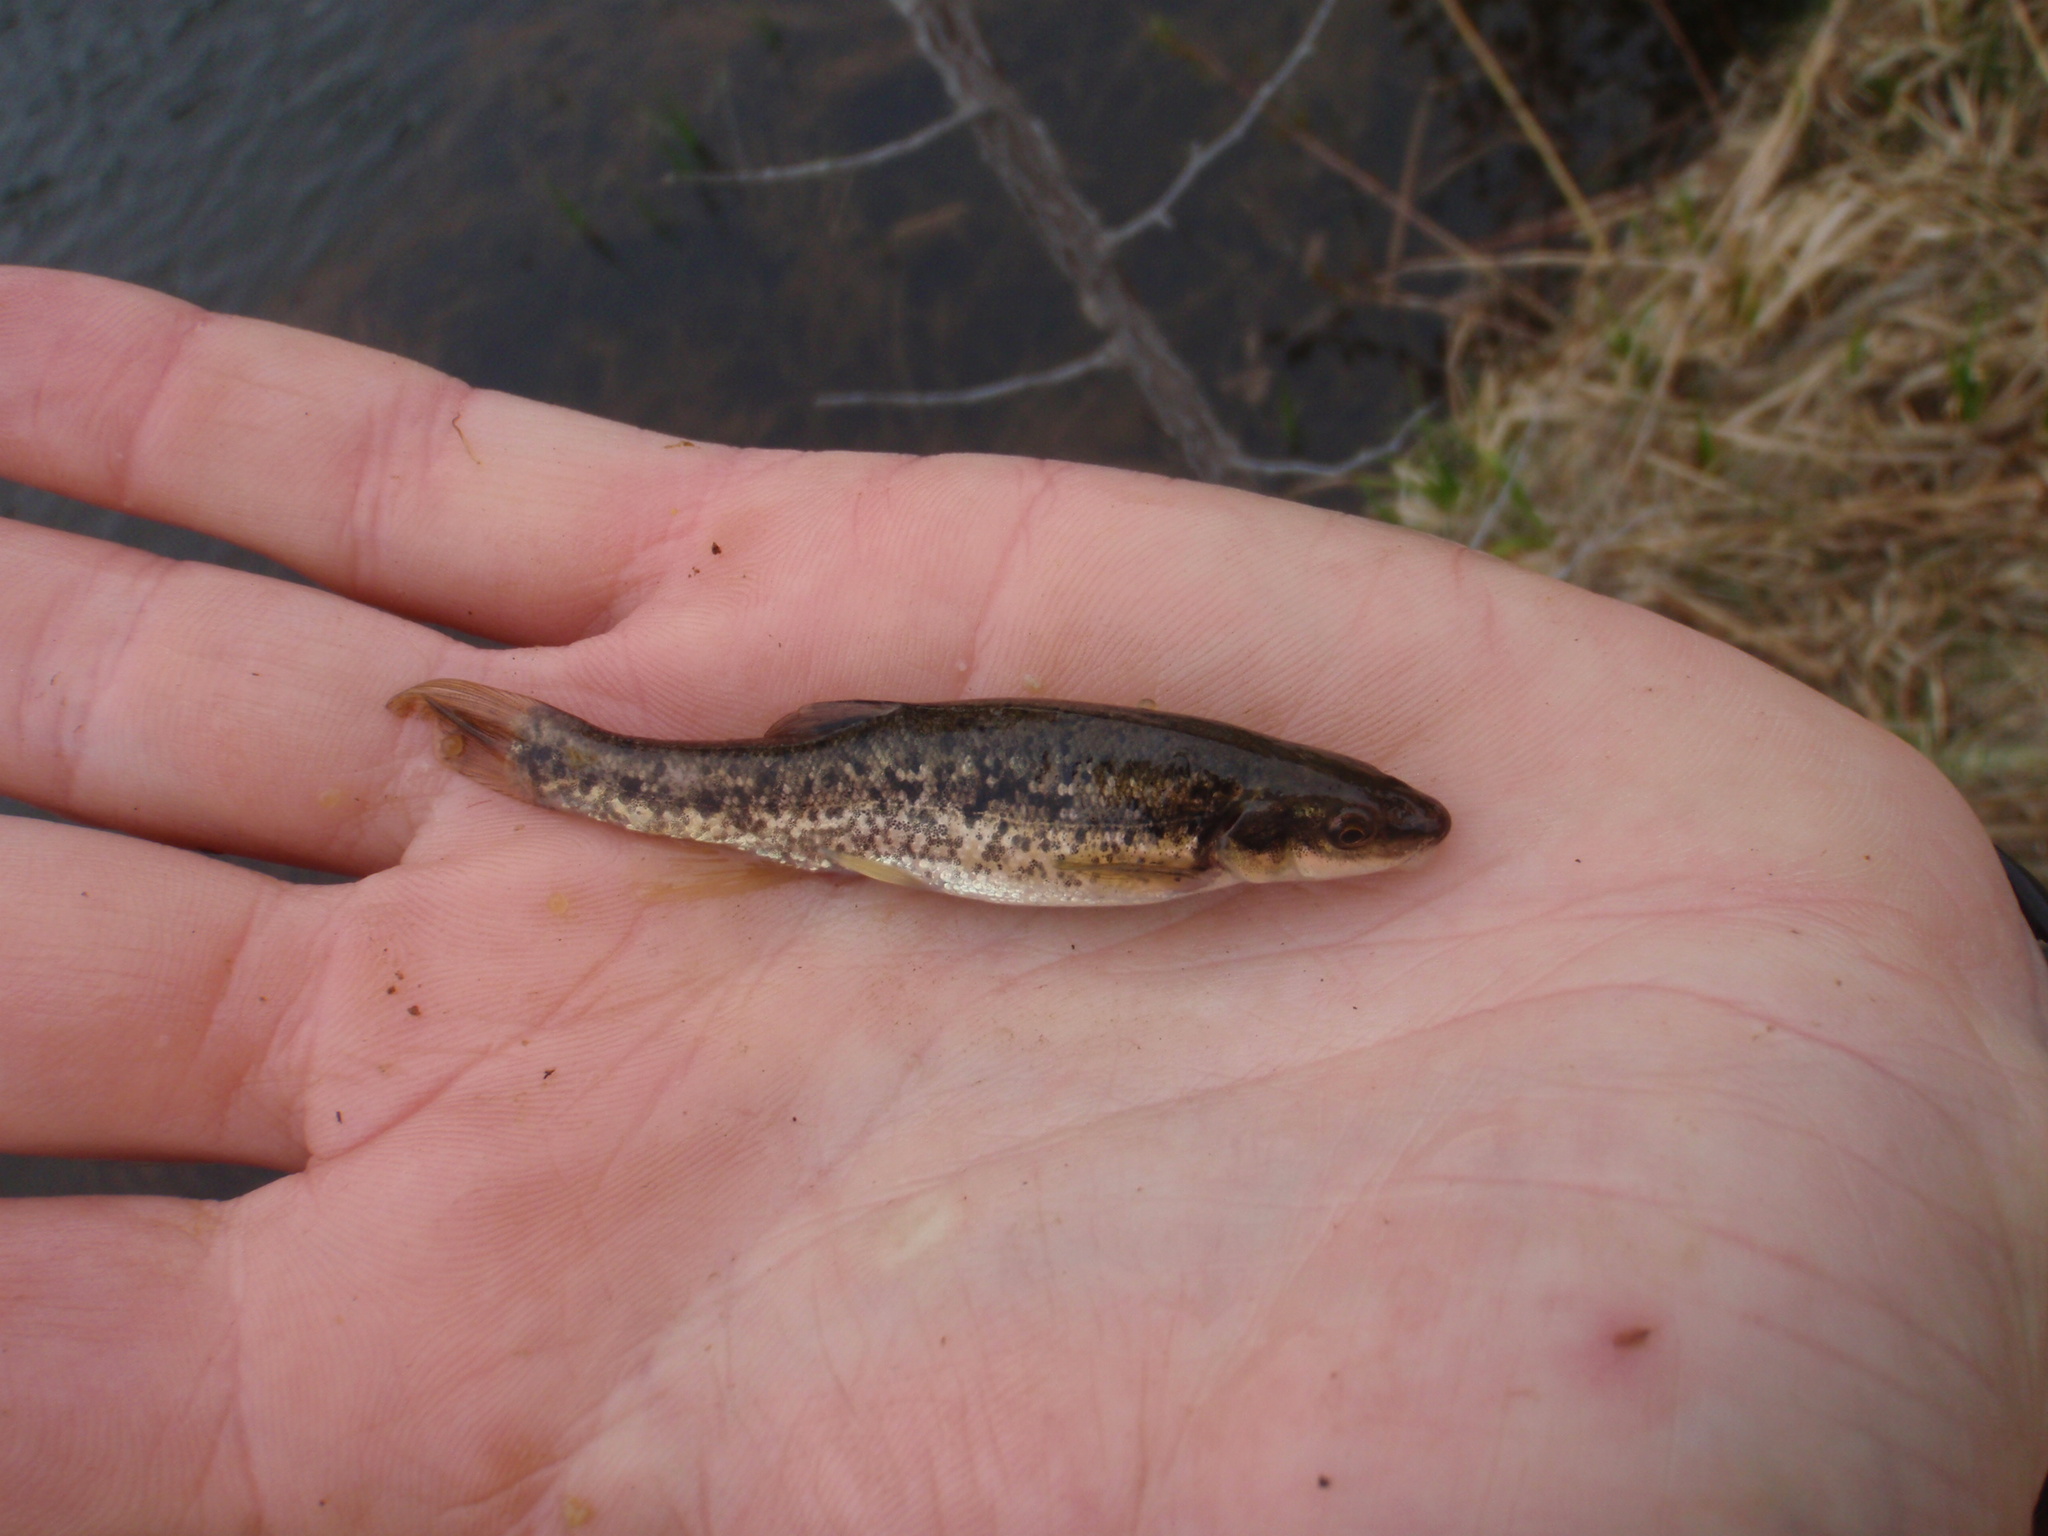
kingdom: Animalia
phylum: Chordata
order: Cypriniformes
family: Cyprinidae
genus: Rhinichthys
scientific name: Rhinichthys obtusus
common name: Western blacknose dace
